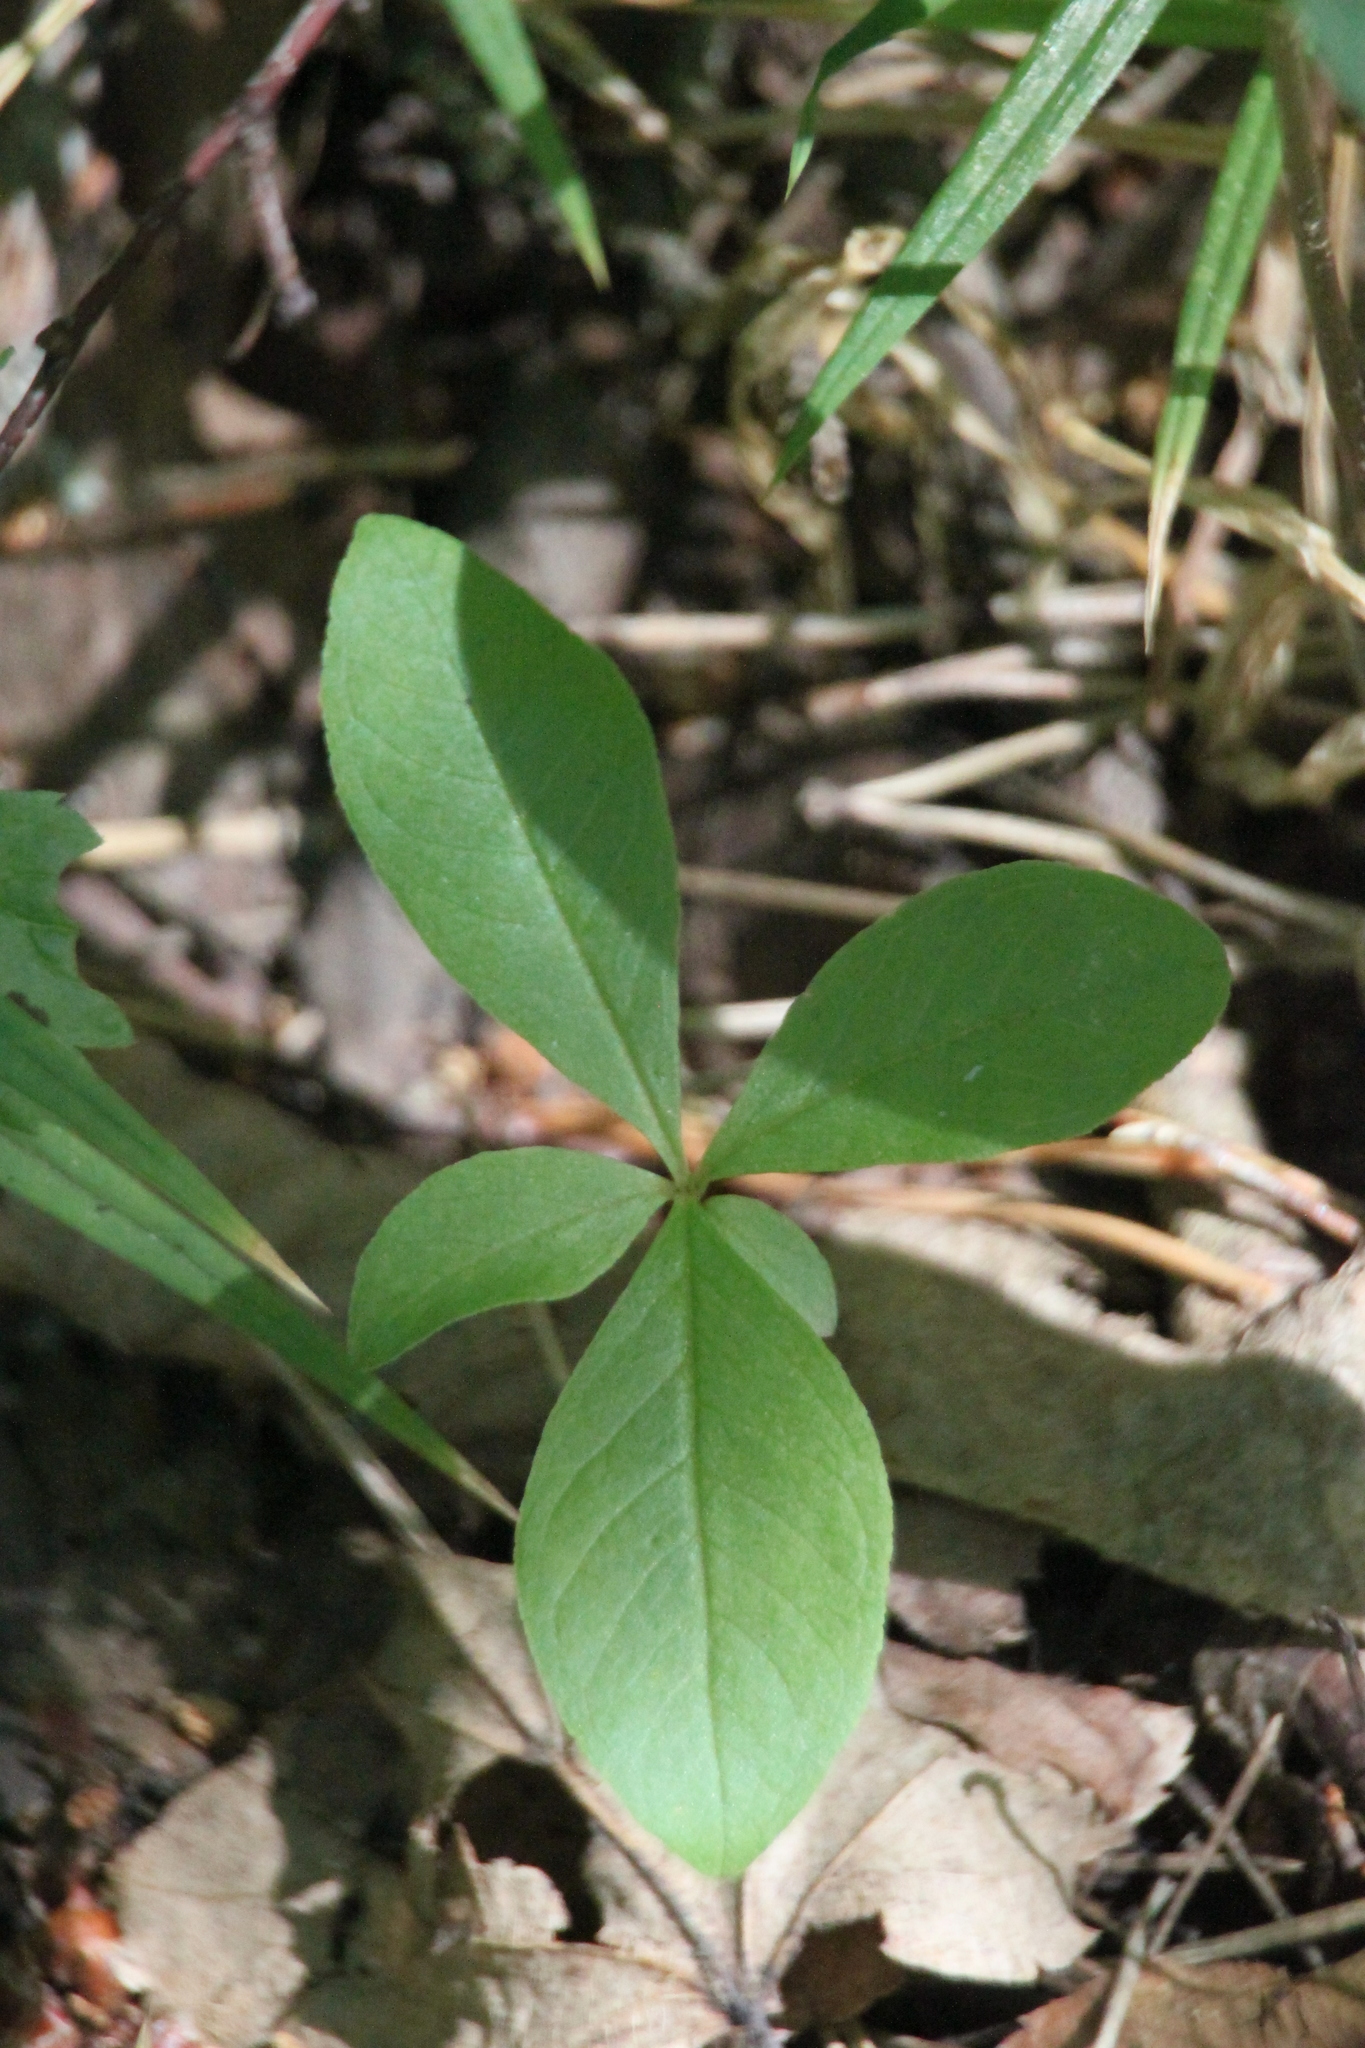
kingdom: Plantae
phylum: Tracheophyta
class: Magnoliopsida
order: Ericales
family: Primulaceae
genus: Lysimachia
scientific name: Lysimachia europaea
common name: Arctic starflower
